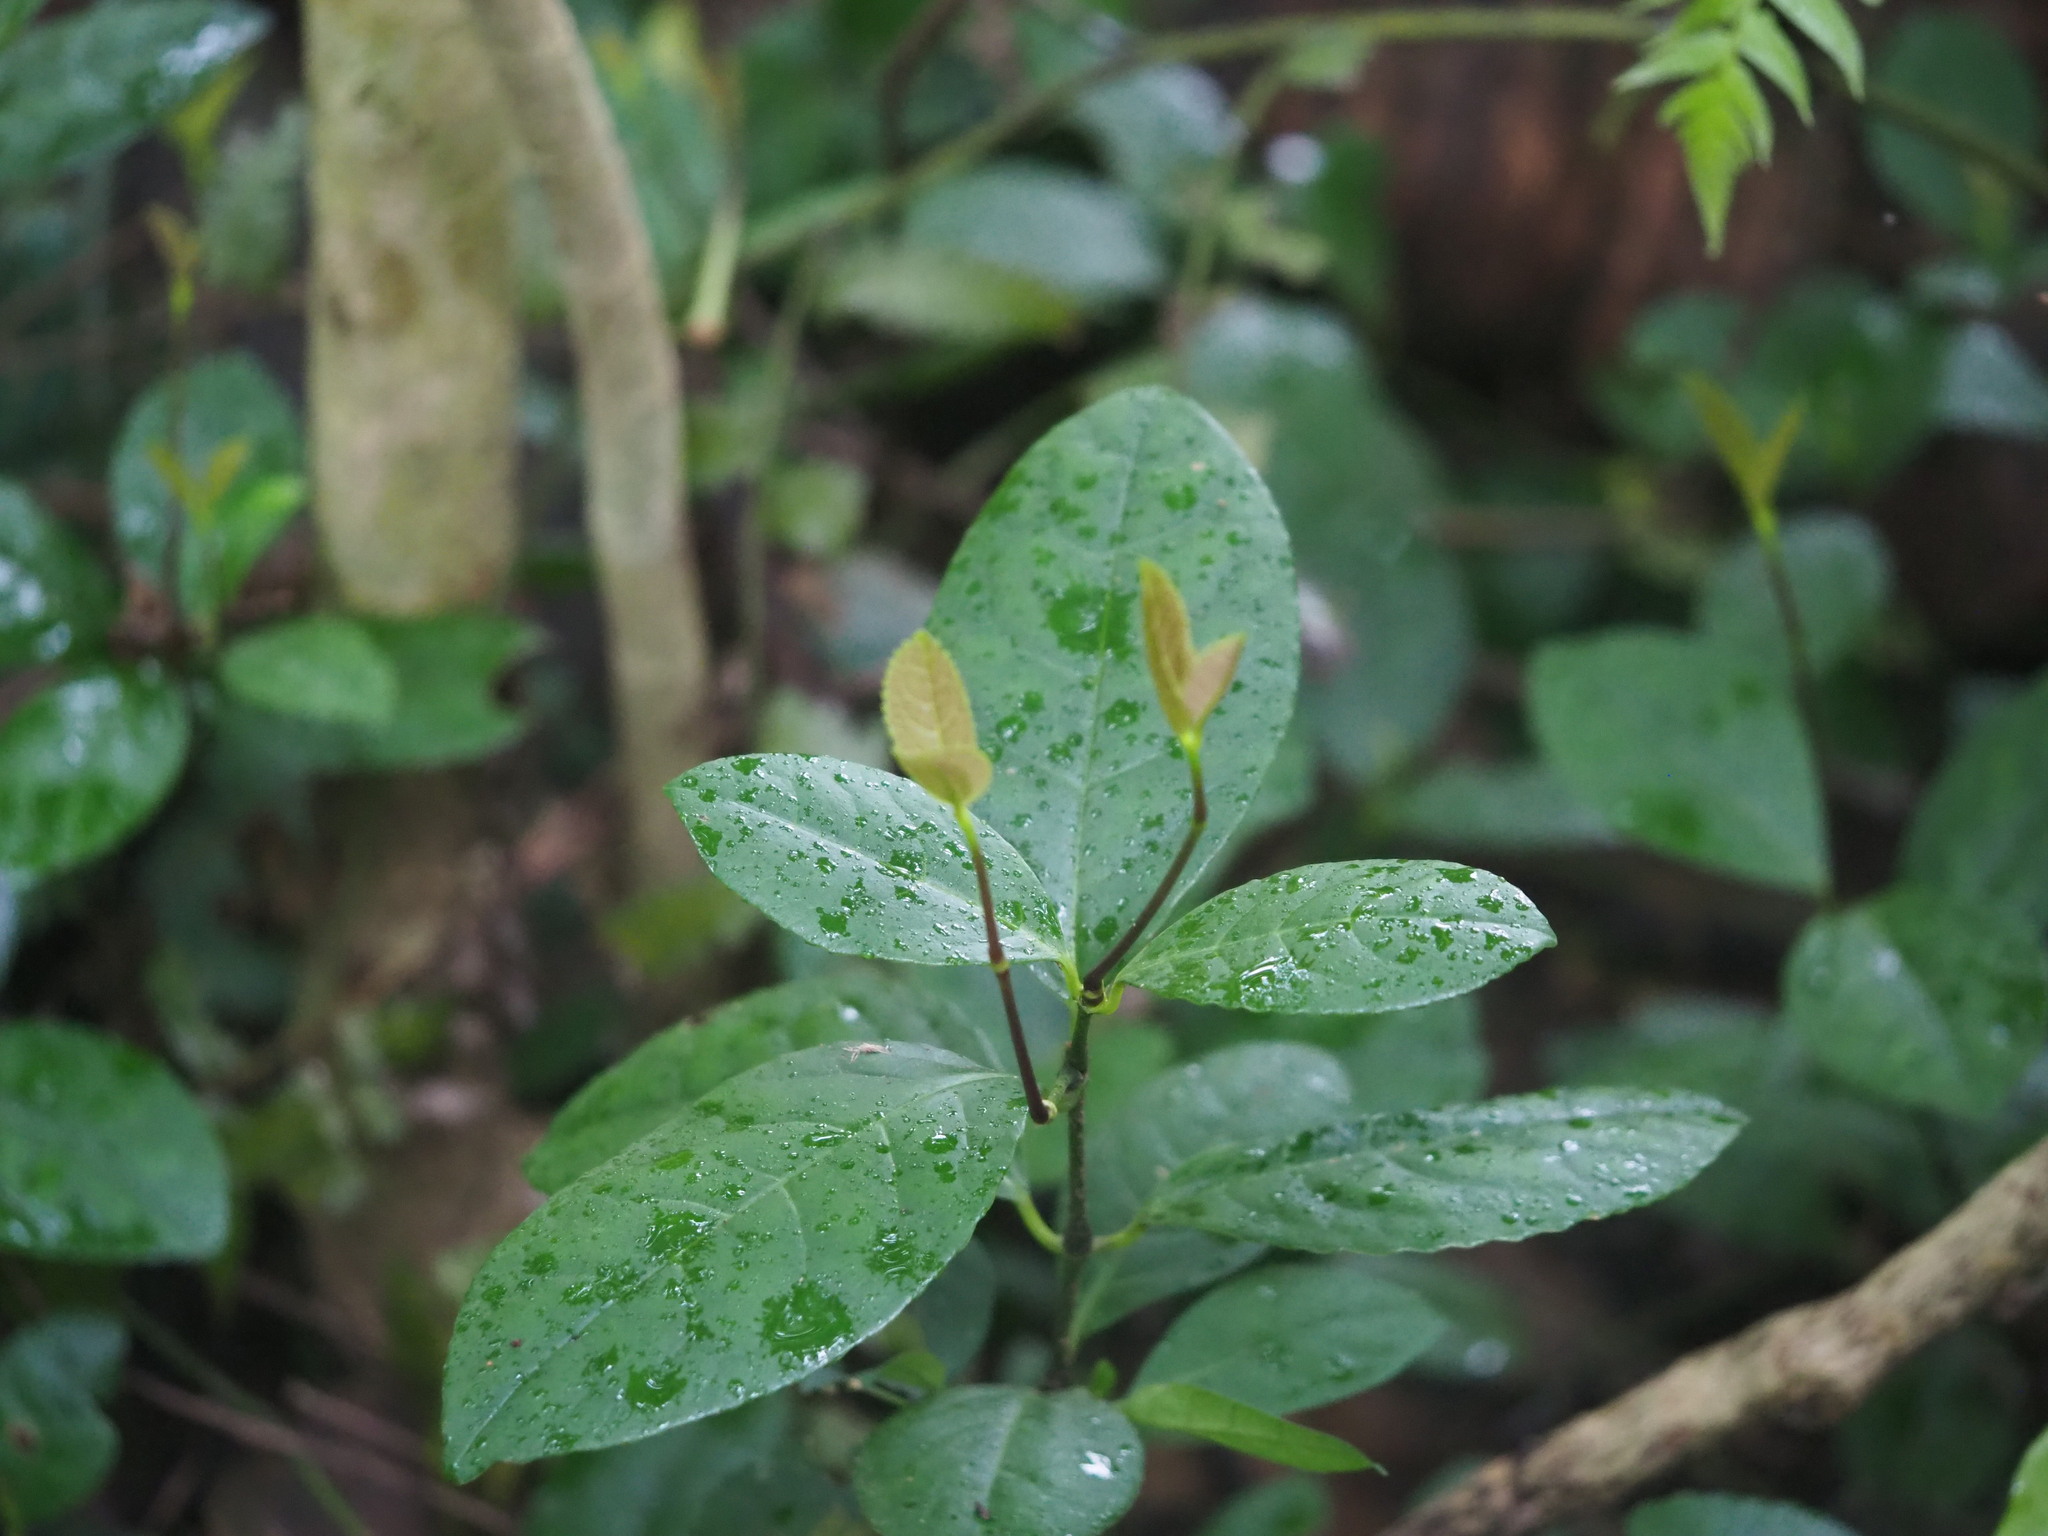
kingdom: Plantae
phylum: Tracheophyta
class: Magnoliopsida
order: Chloranthales
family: Chloranthaceae
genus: Chloranthus
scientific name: Chloranthus spicatus
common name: Chulantree
